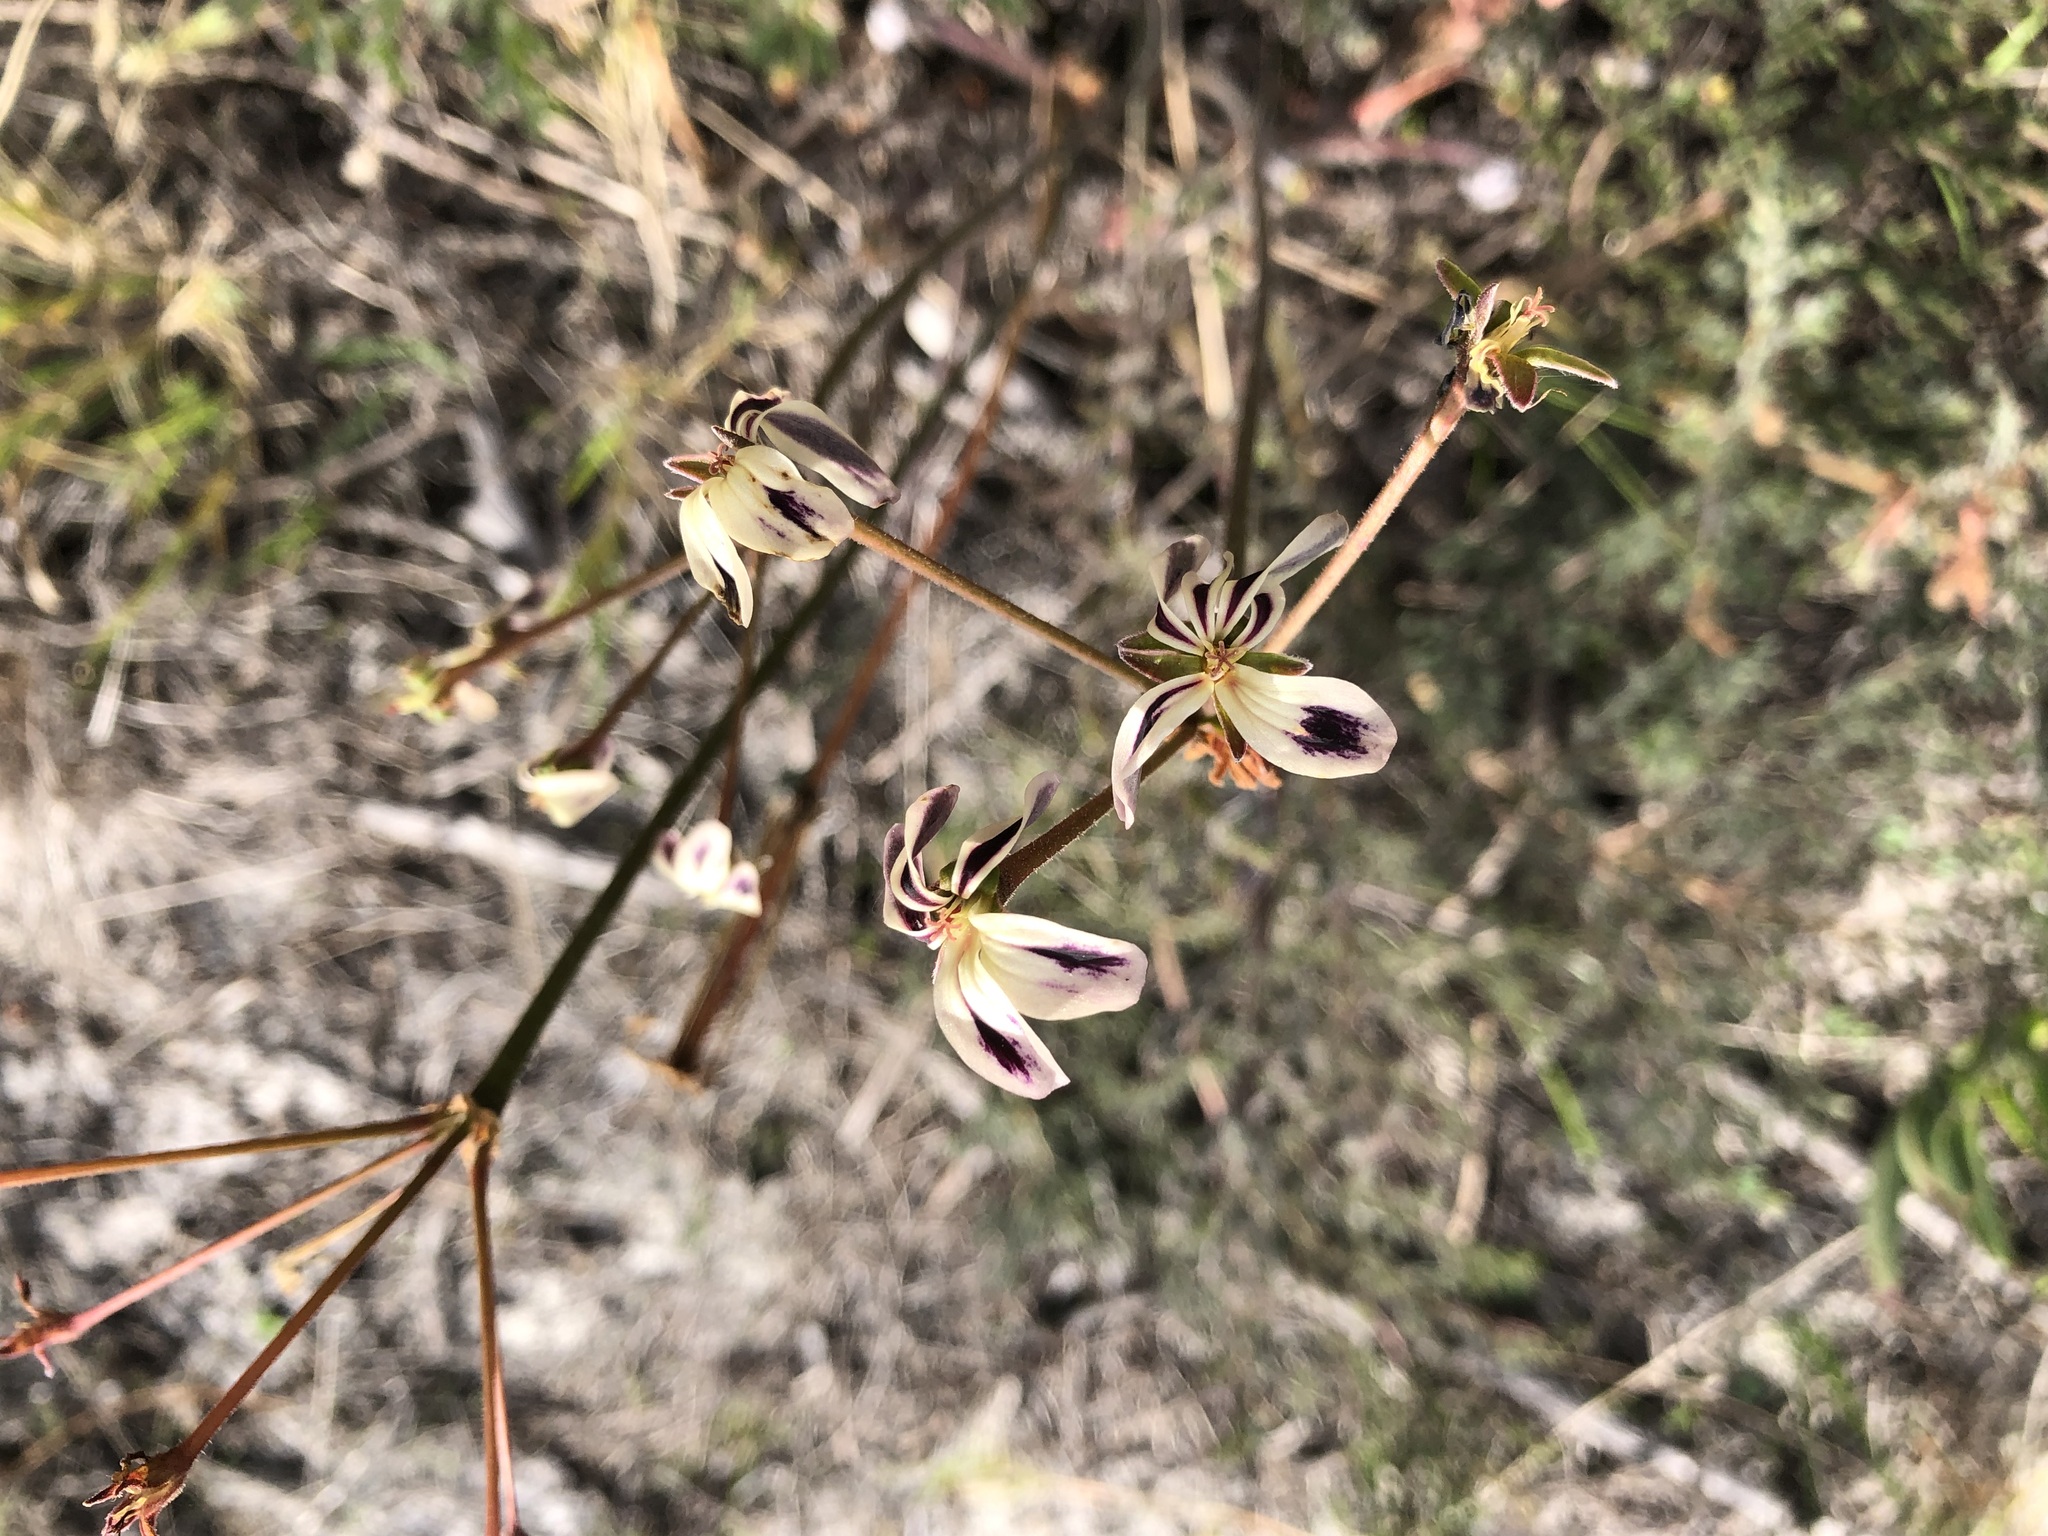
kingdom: Plantae
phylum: Tracheophyta
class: Magnoliopsida
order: Geraniales
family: Geraniaceae
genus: Pelargonium
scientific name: Pelargonium triste
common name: Night-scent pelargonium
